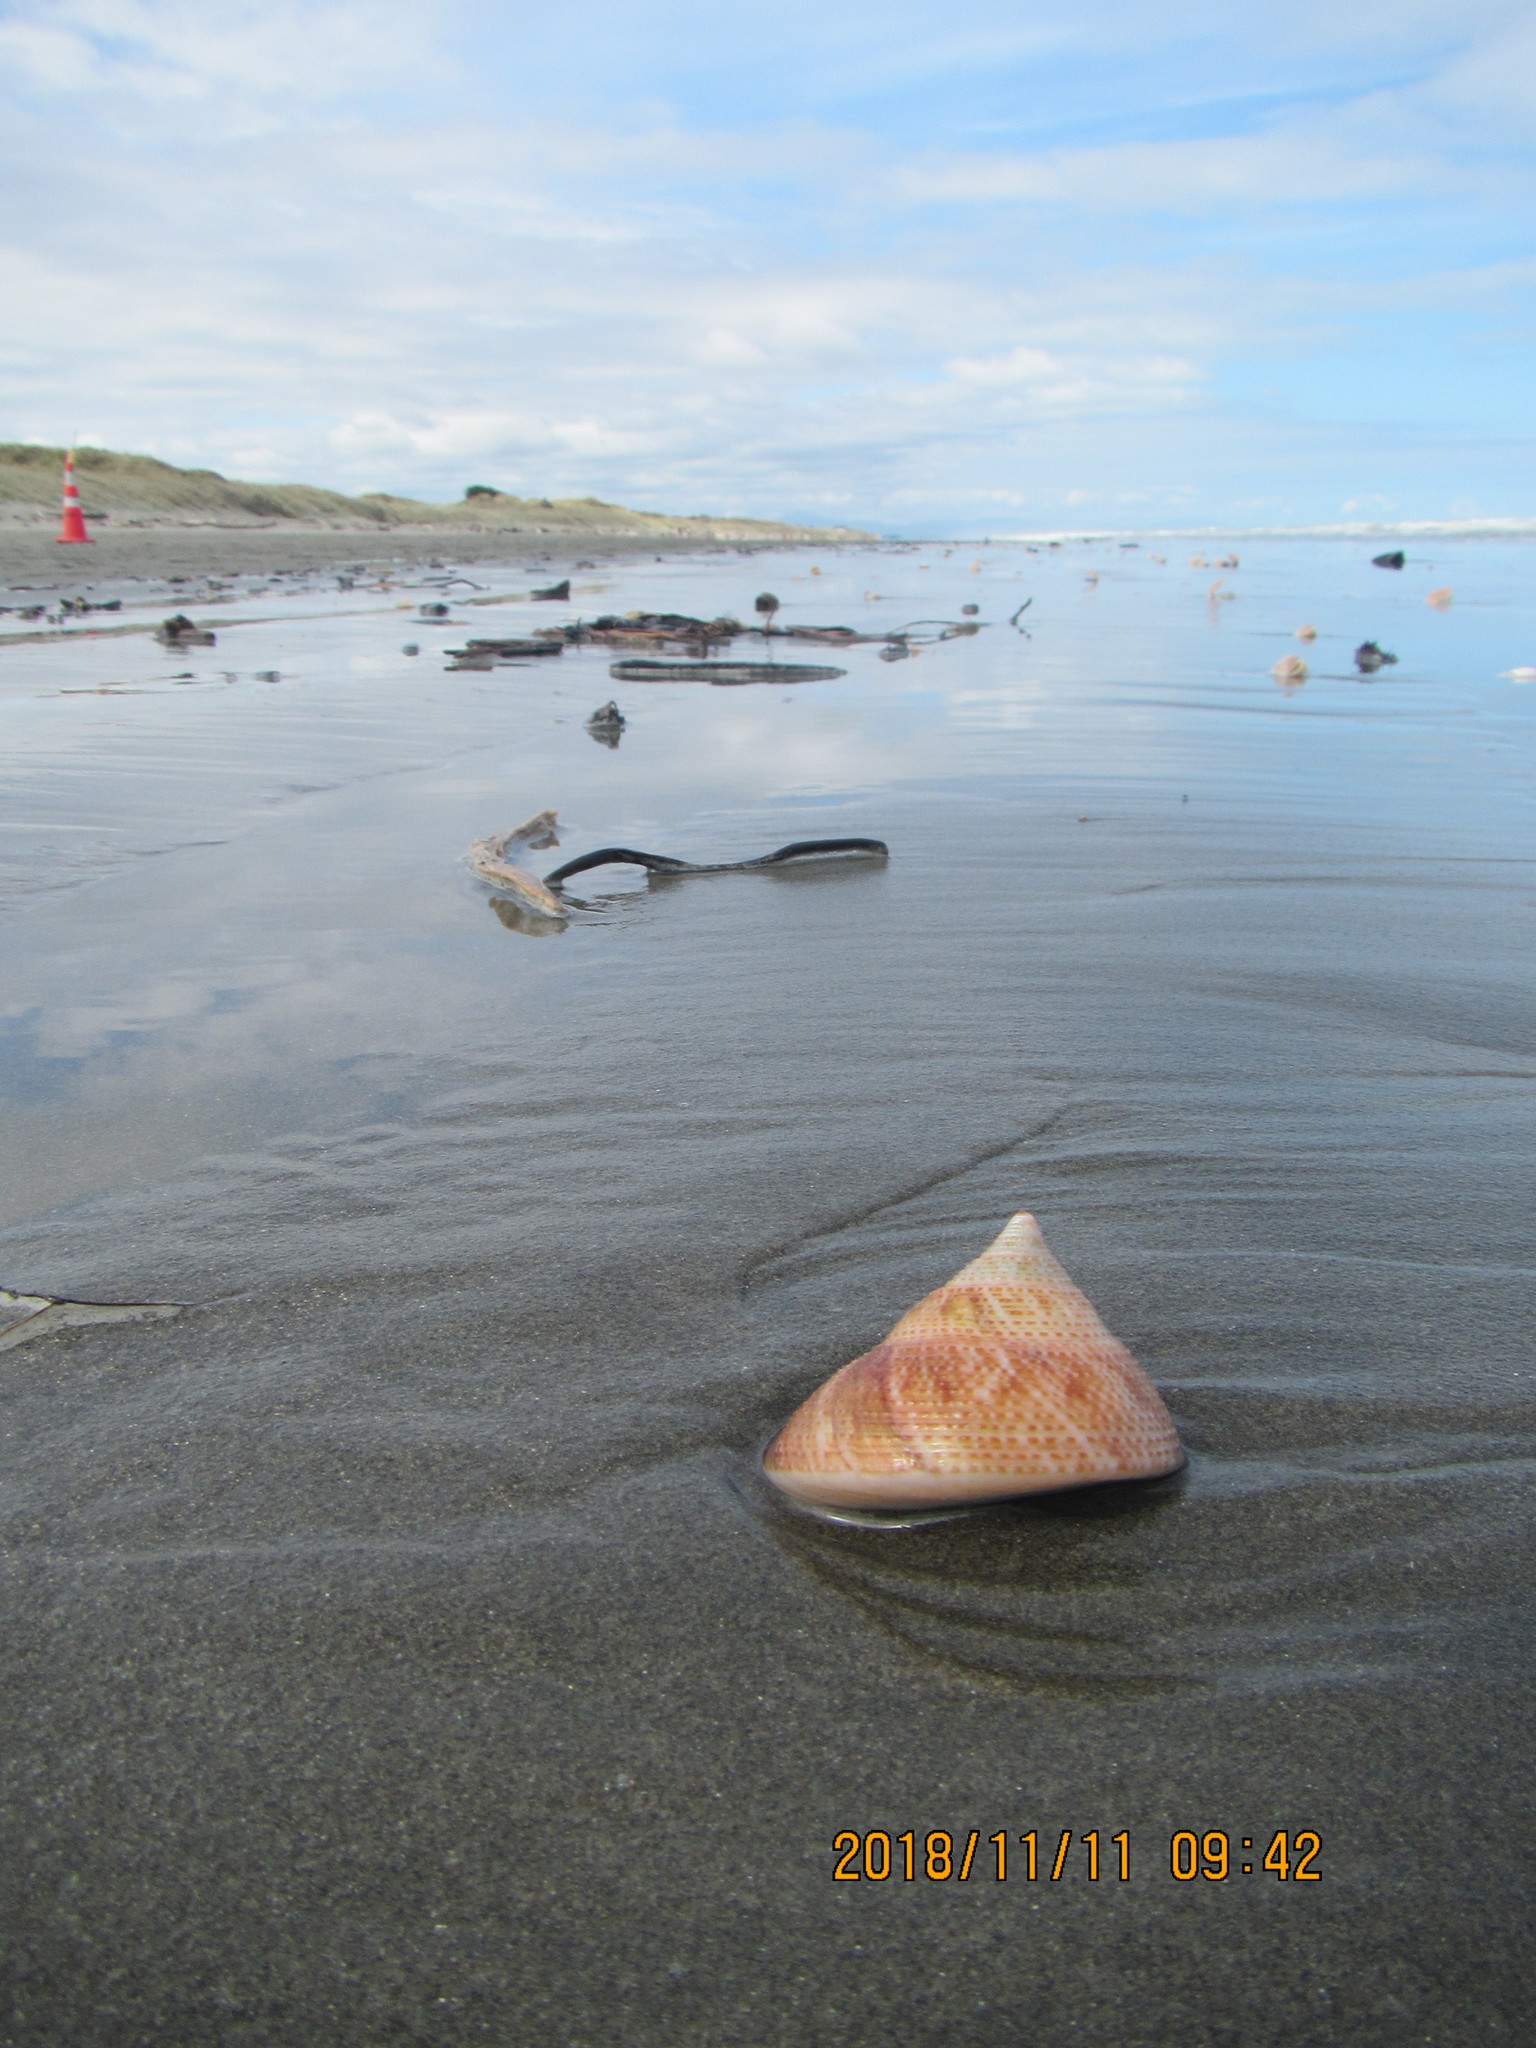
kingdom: Animalia
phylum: Mollusca
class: Gastropoda
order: Trochida
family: Calliostomatidae
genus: Maurea
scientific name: Maurea selecta
